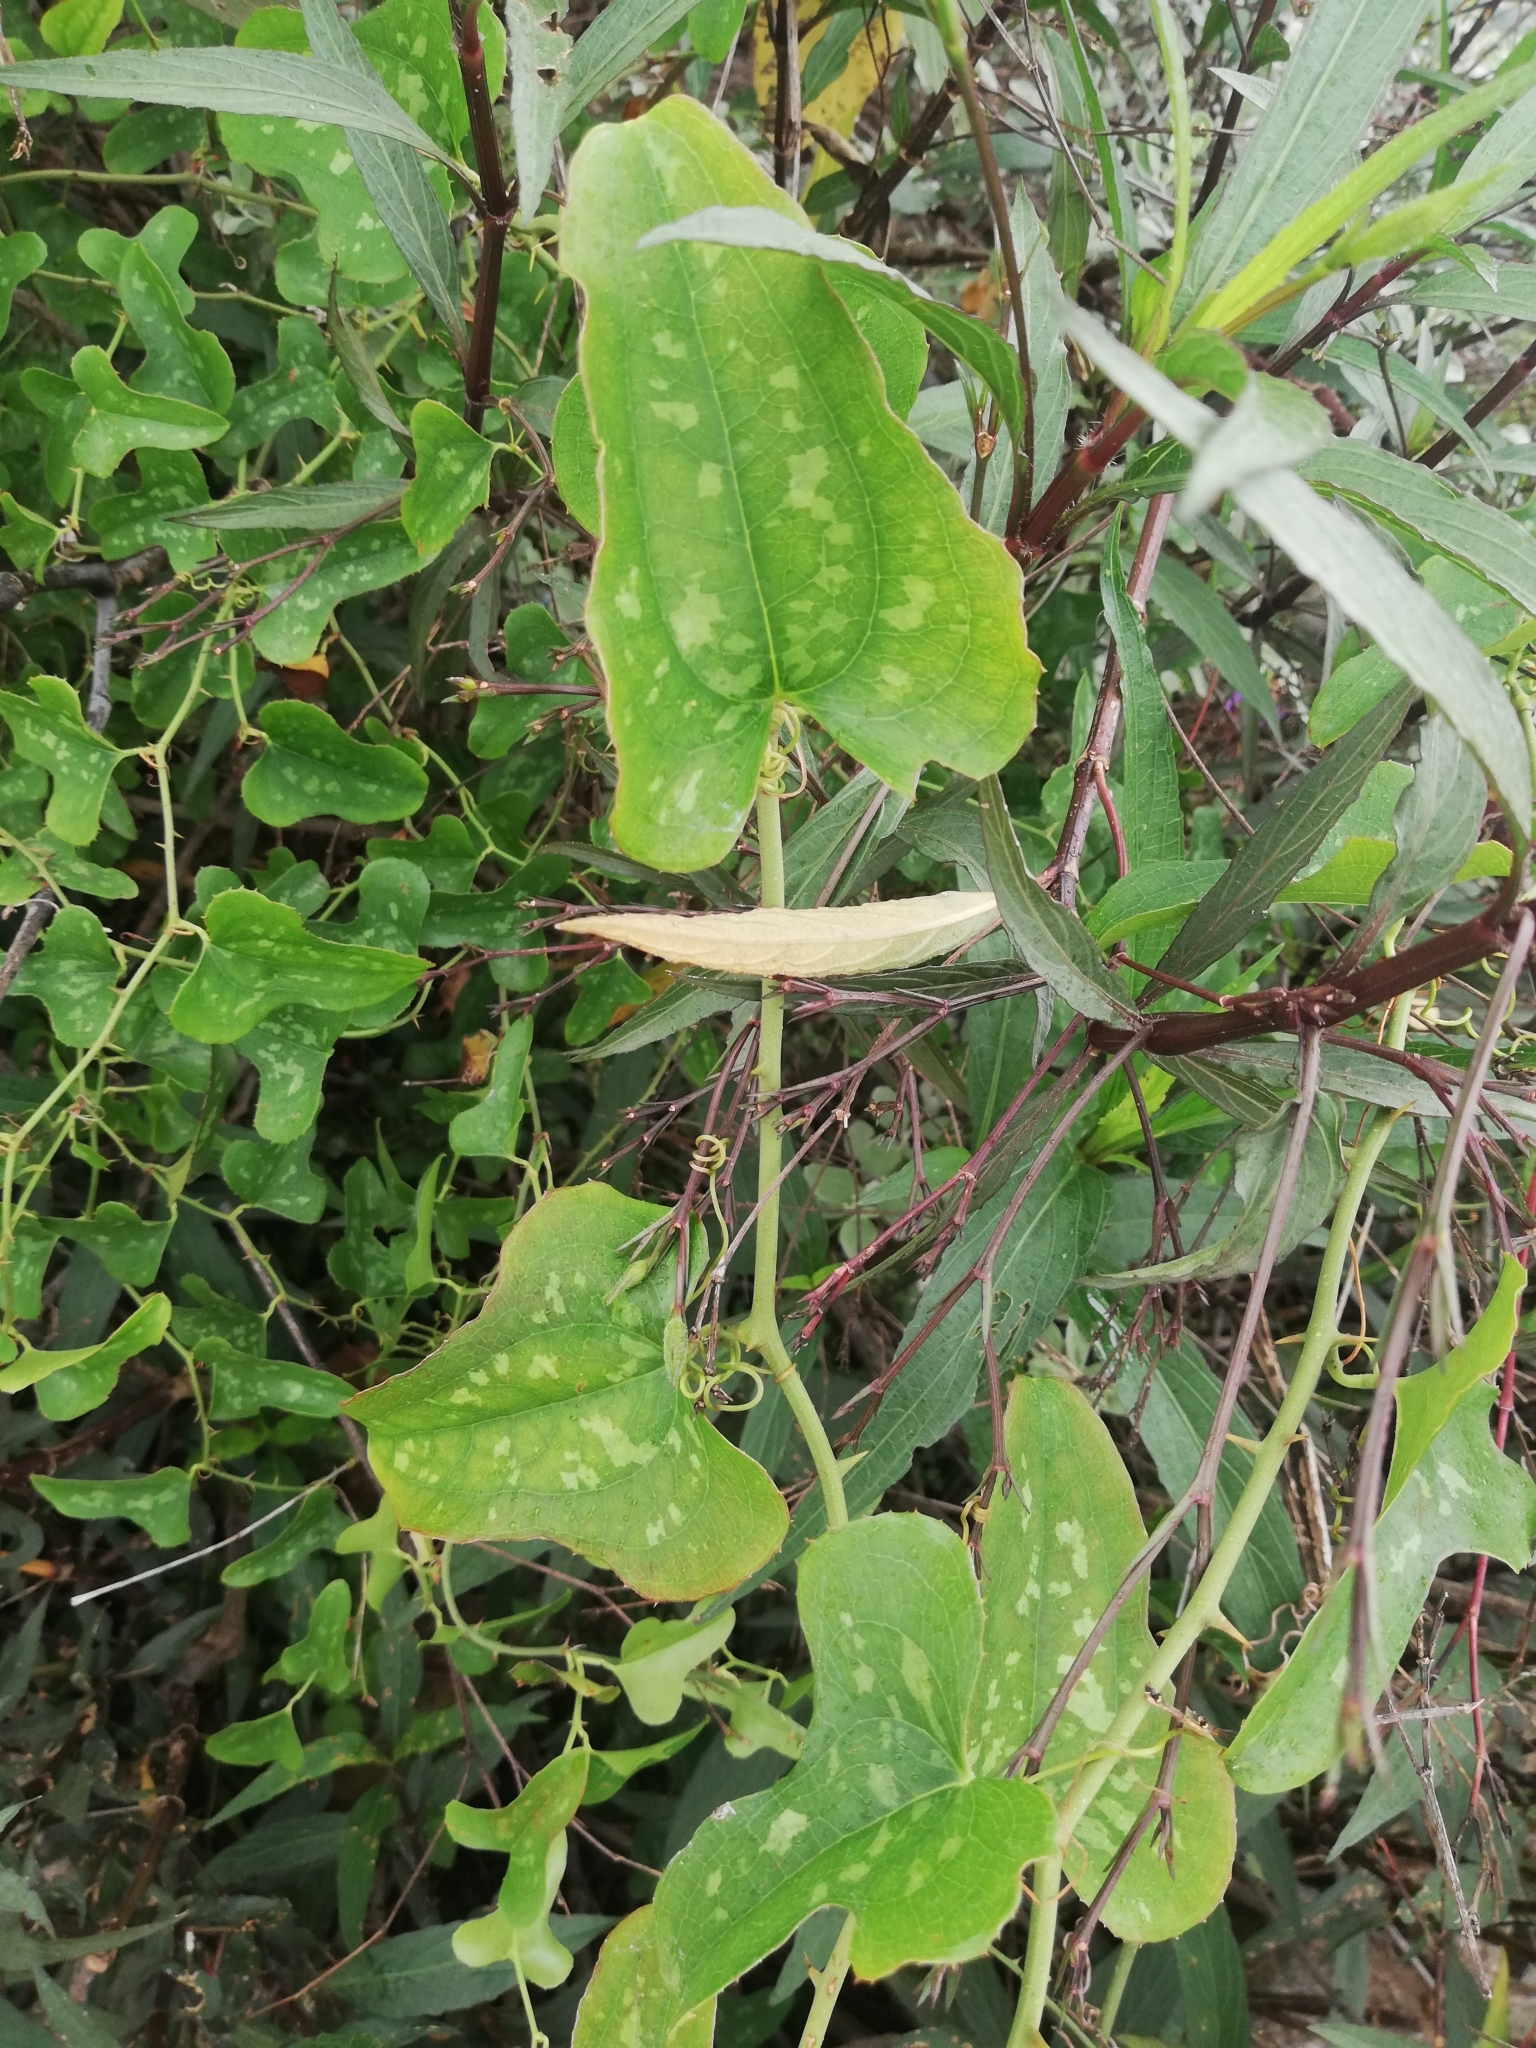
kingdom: Plantae
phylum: Tracheophyta
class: Liliopsida
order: Liliales
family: Smilacaceae
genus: Smilax
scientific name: Smilax bona-nox
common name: Catbrier
